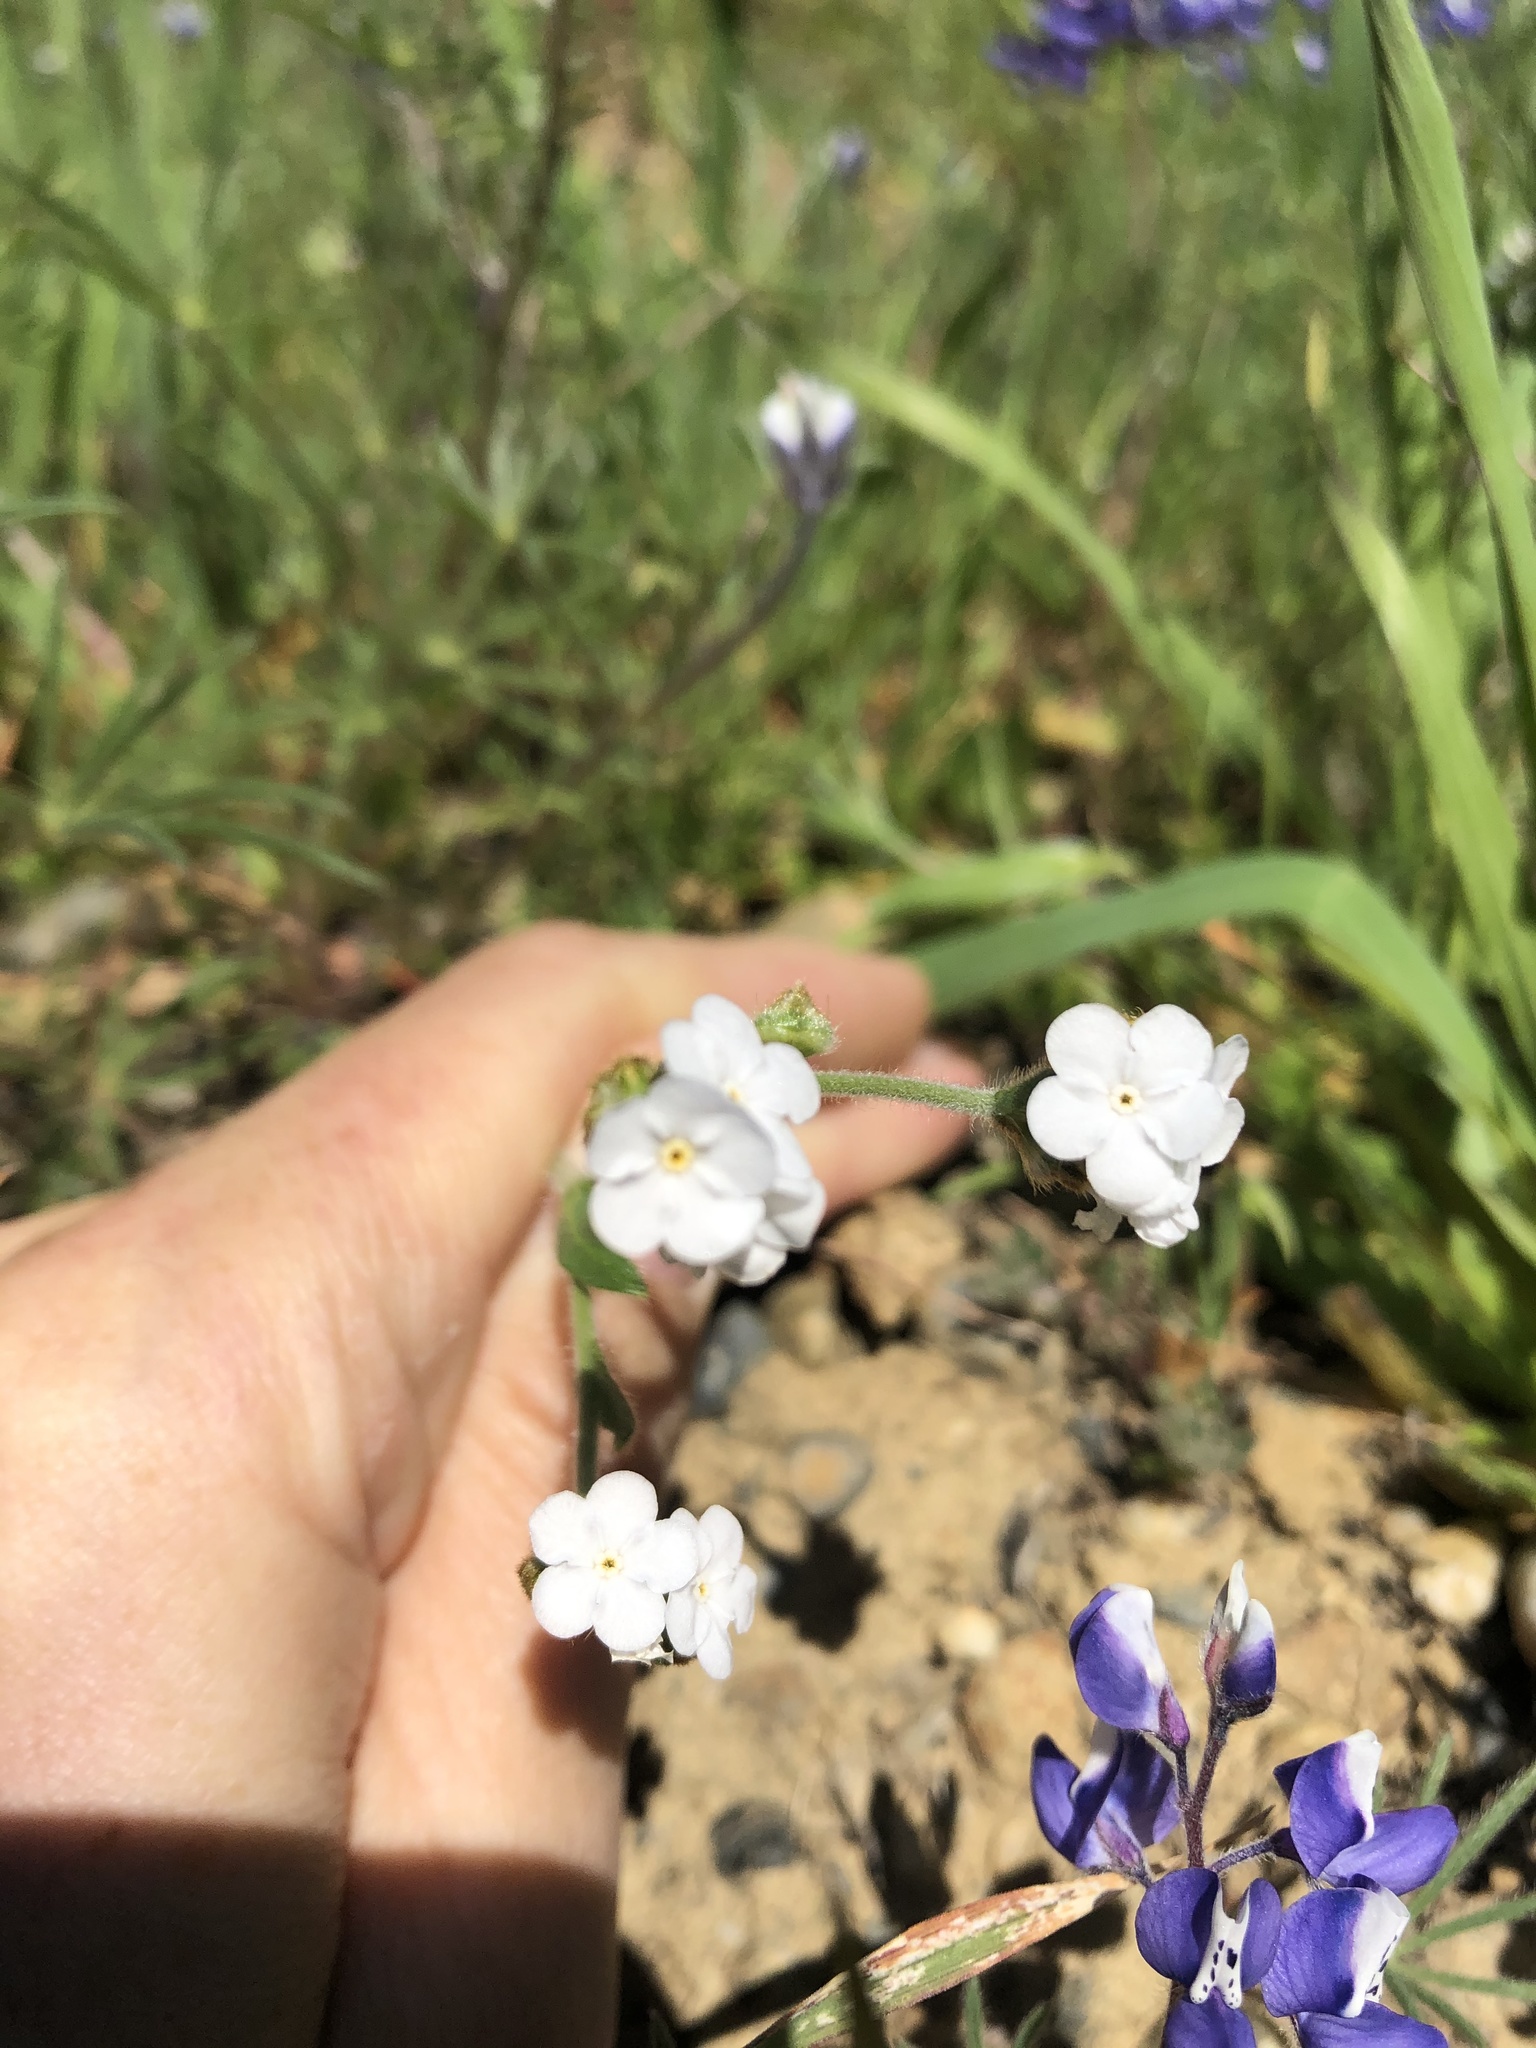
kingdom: Plantae
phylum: Tracheophyta
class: Magnoliopsida
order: Boraginales
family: Boraginaceae
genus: Plagiobothrys
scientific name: Plagiobothrys canescens
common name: Valley popcorn-flower
